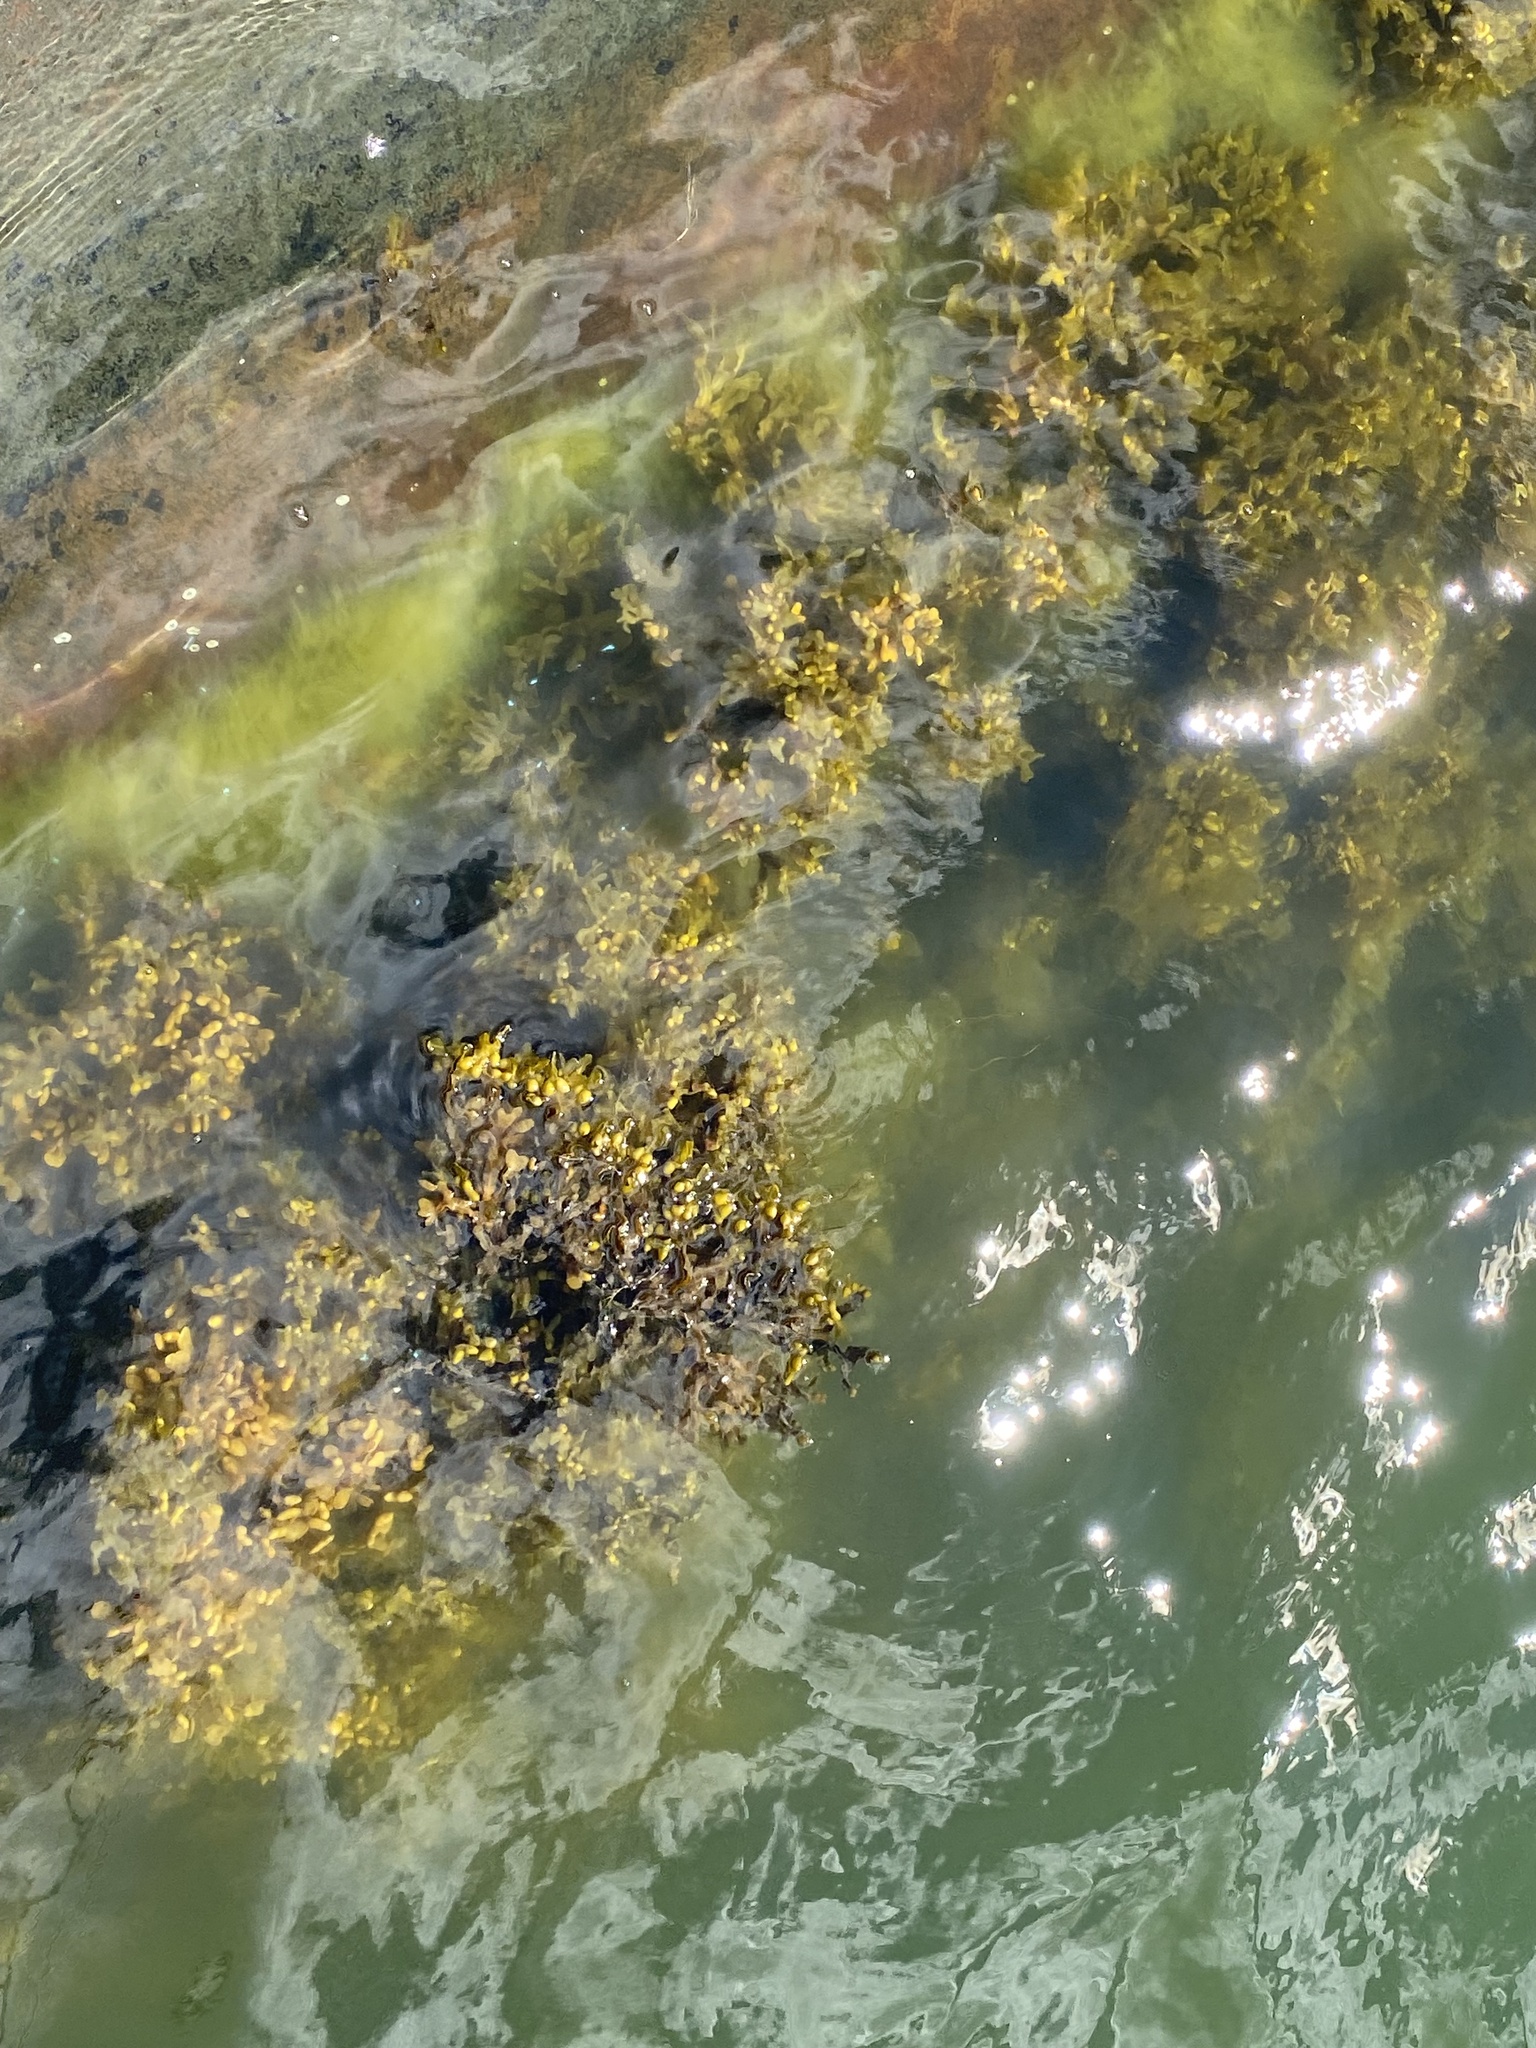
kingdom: Chromista
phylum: Ochrophyta
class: Phaeophyceae
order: Fucales
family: Fucaceae
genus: Fucus
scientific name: Fucus vesiculosus
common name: Bladder wrack
